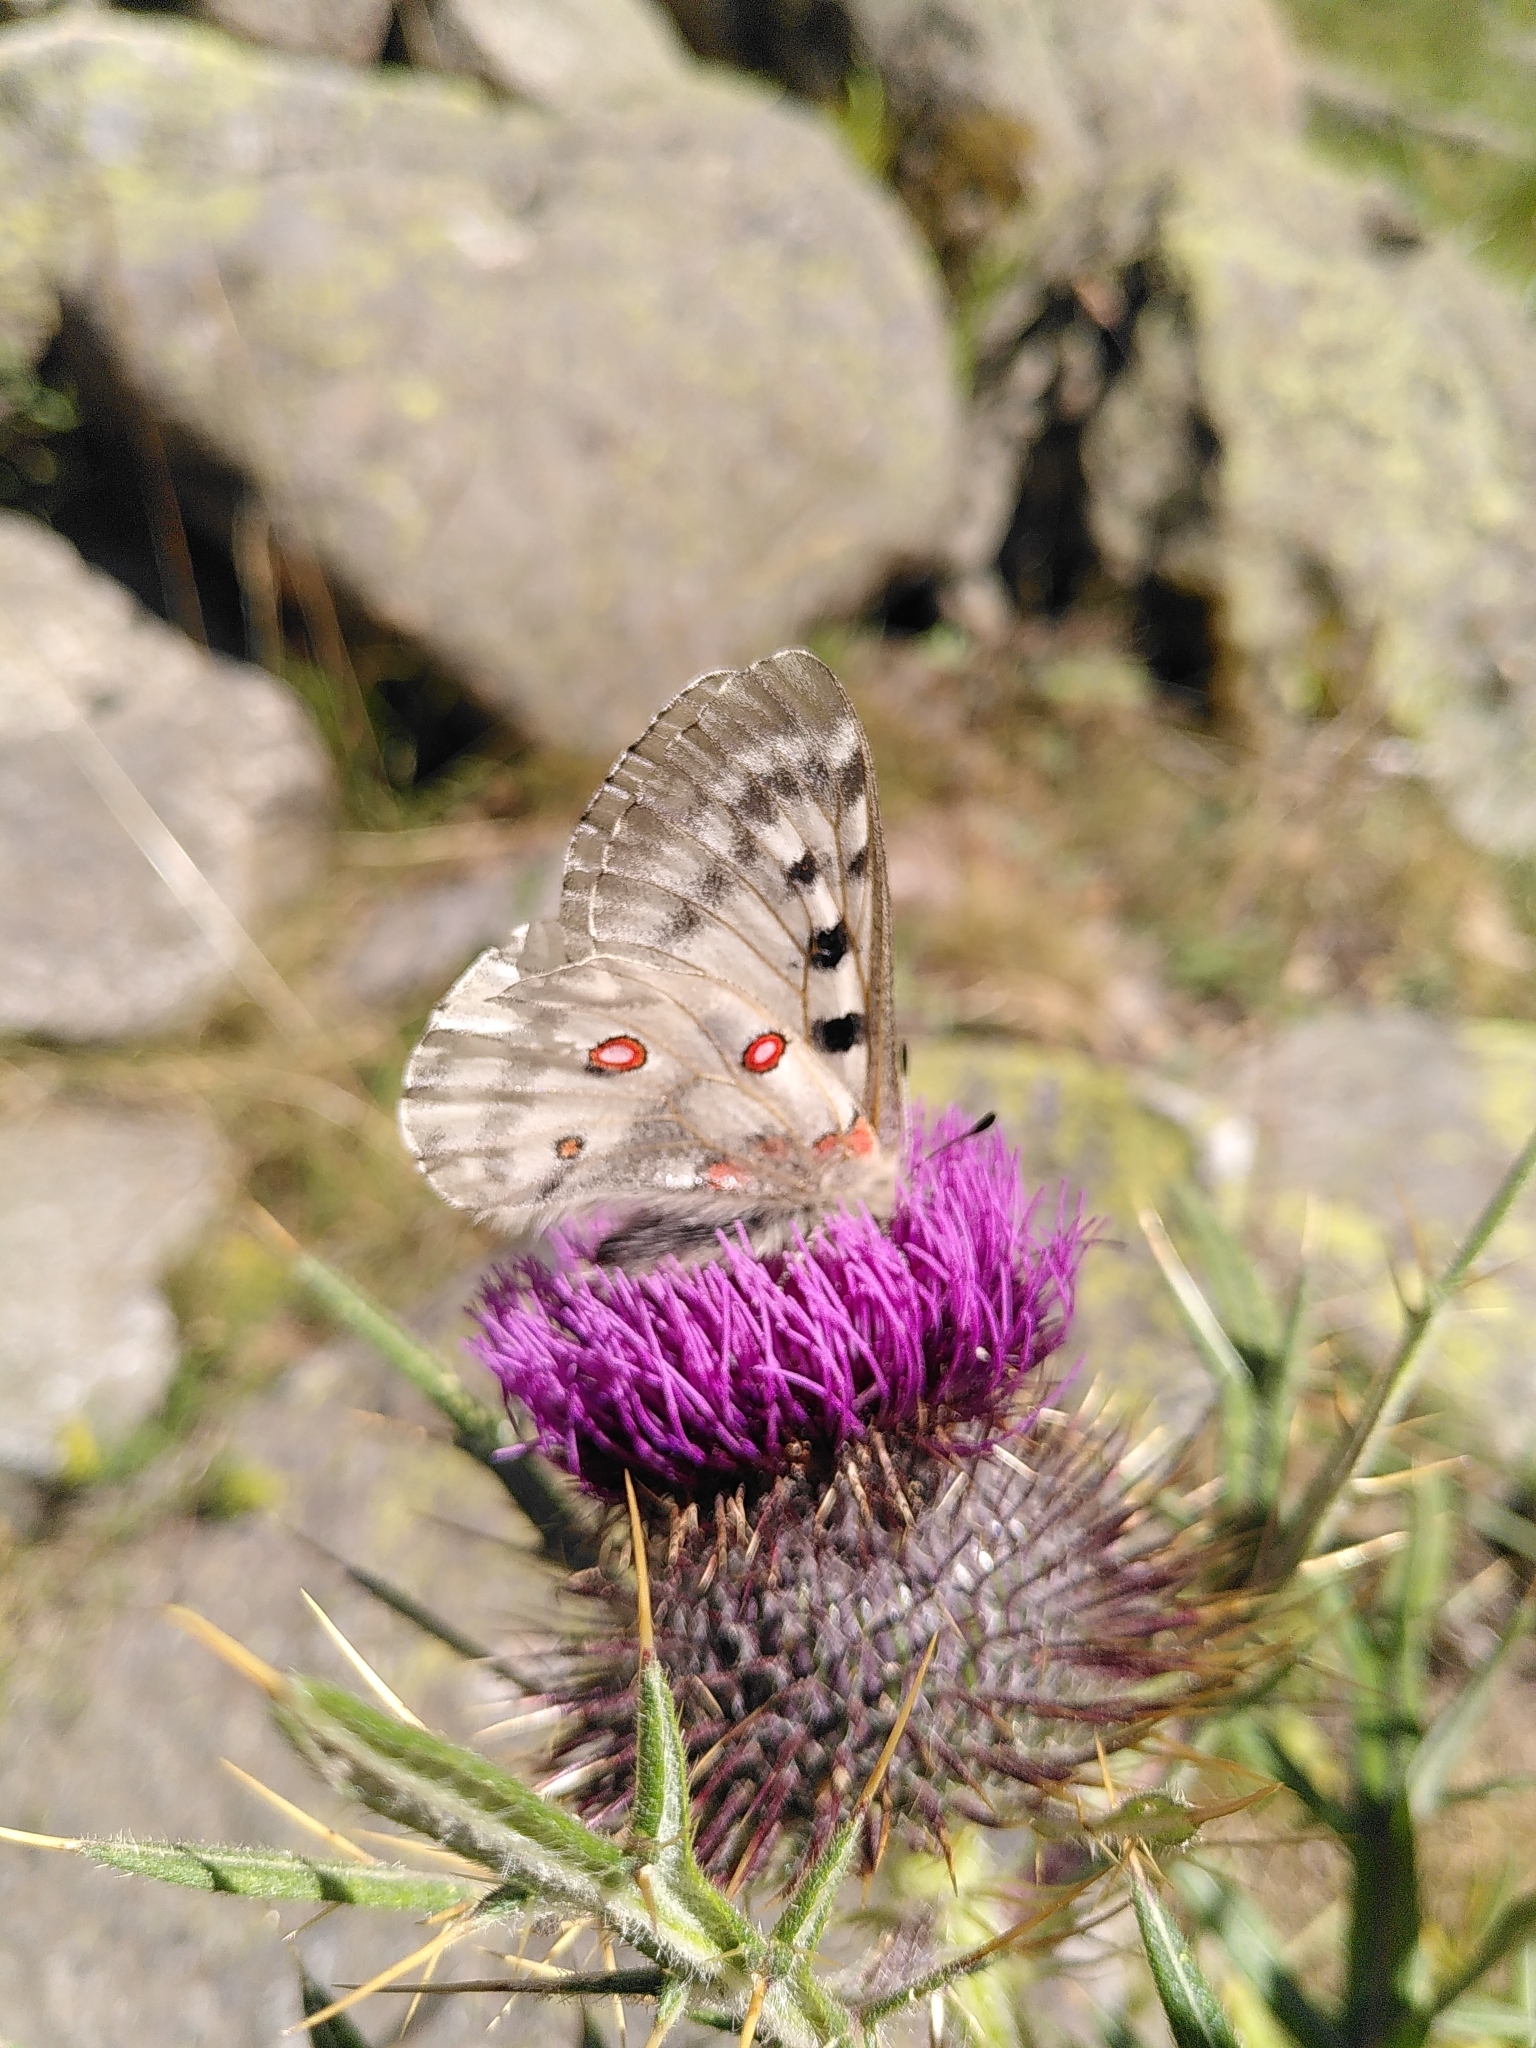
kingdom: Animalia
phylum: Arthropoda
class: Insecta
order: Lepidoptera
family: Papilionidae
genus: Parnassius
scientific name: Parnassius apollo
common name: Apollo
